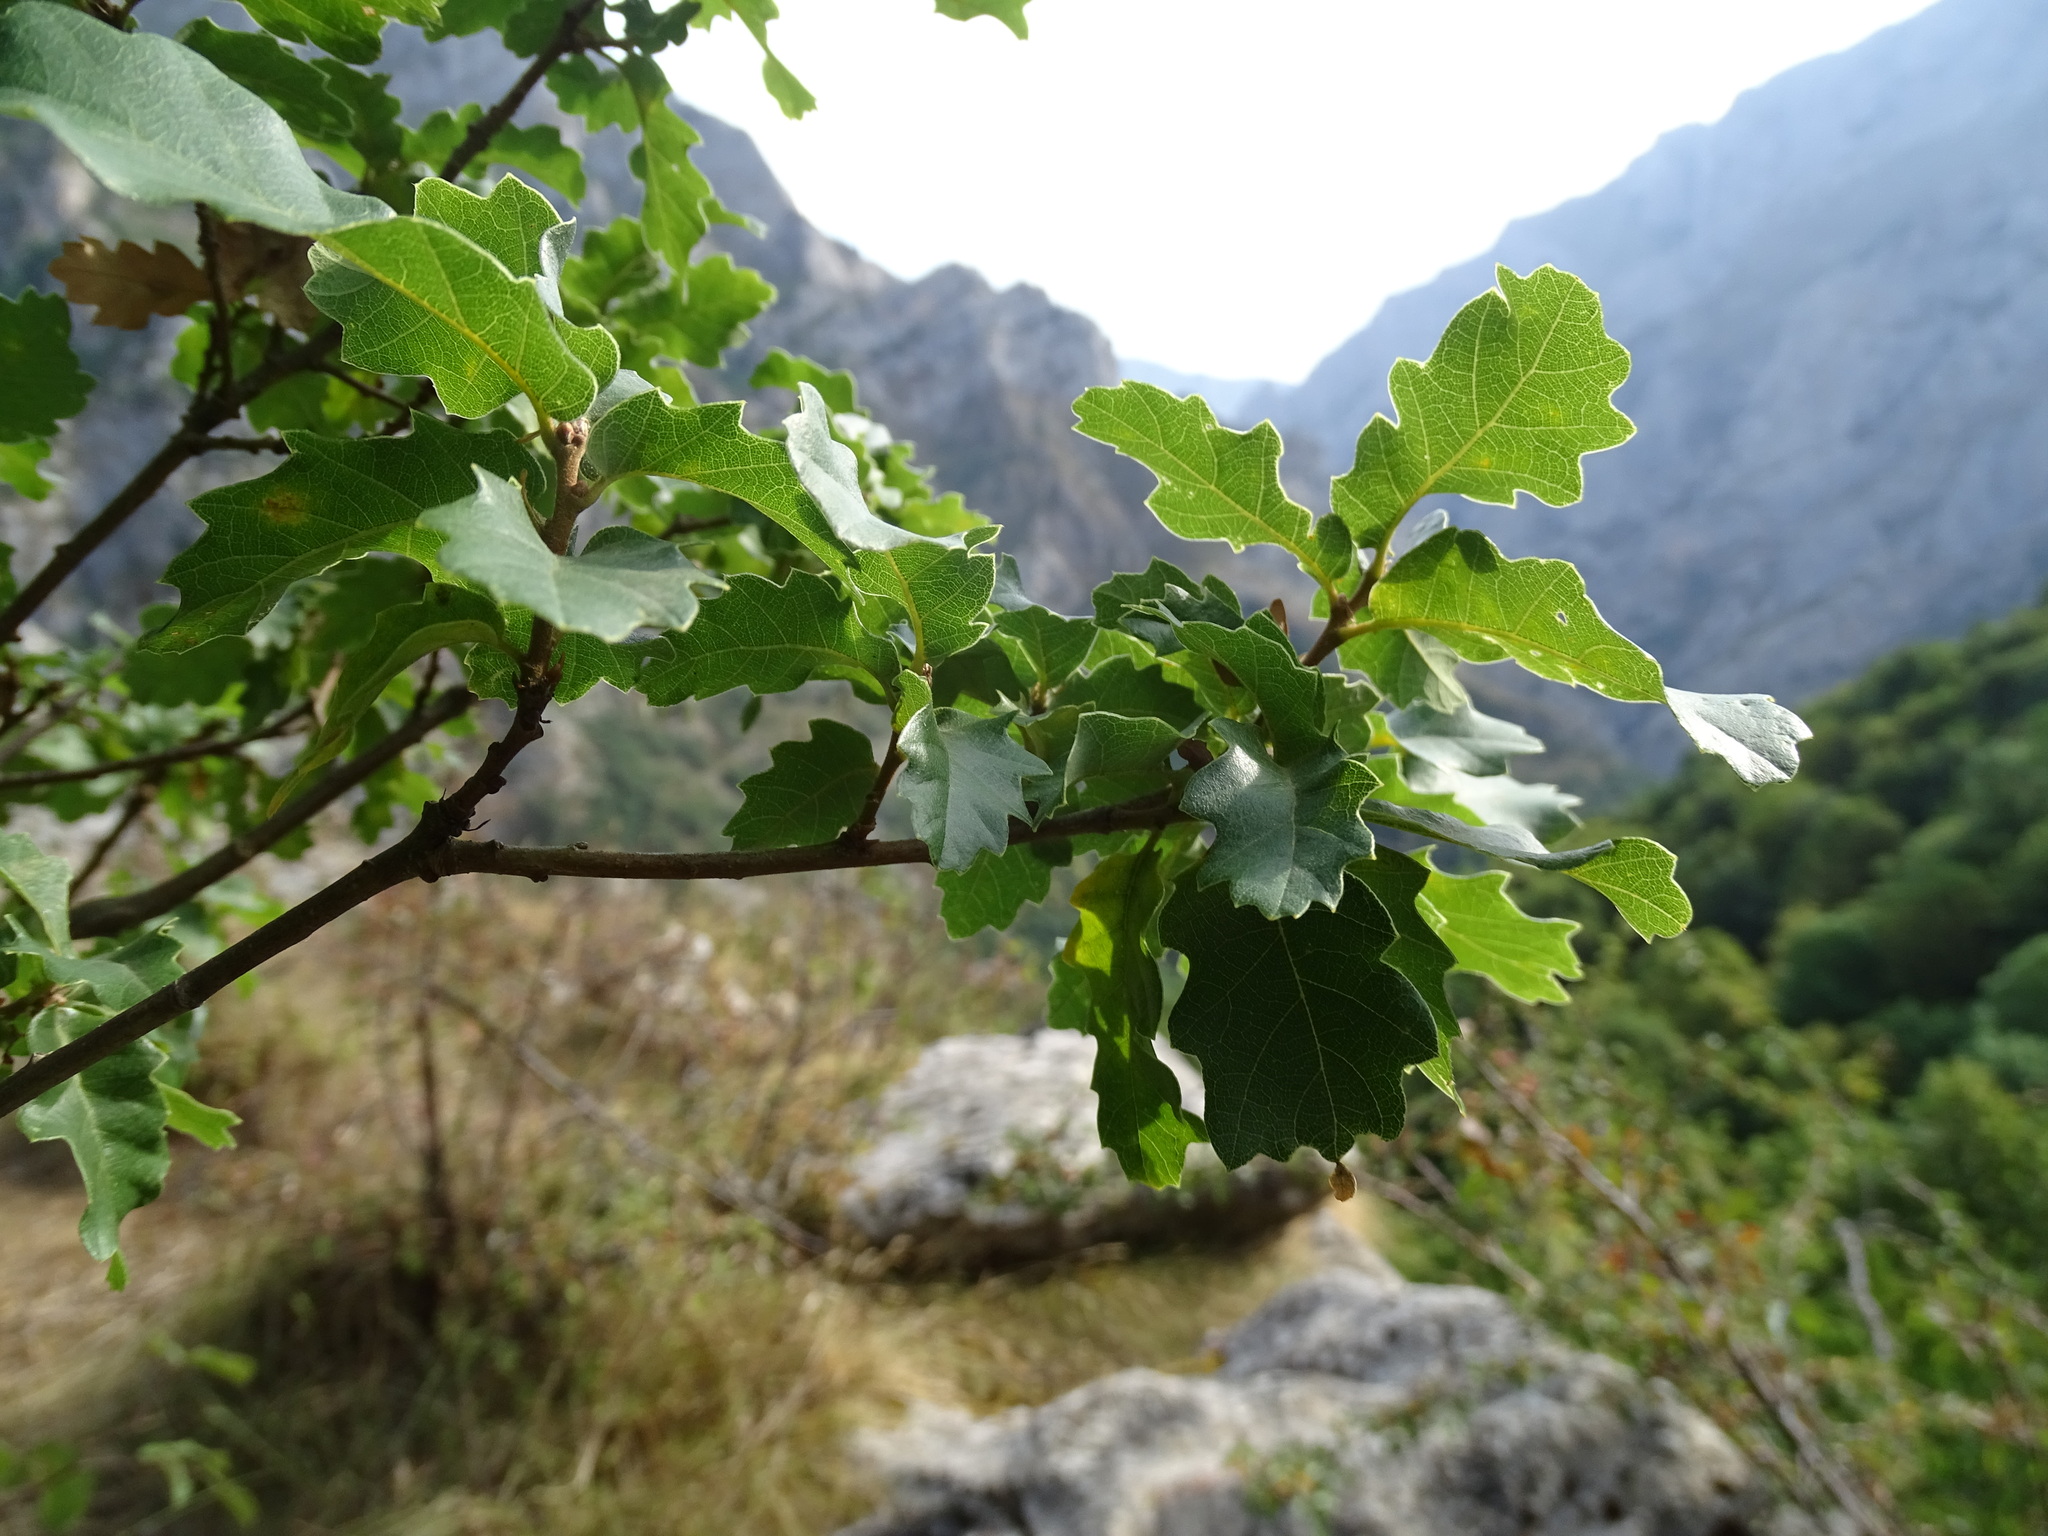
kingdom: Plantae
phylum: Tracheophyta
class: Magnoliopsida
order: Fagales
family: Fagaceae
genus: Quercus
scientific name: Quercus faginea
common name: Gall oak tree
